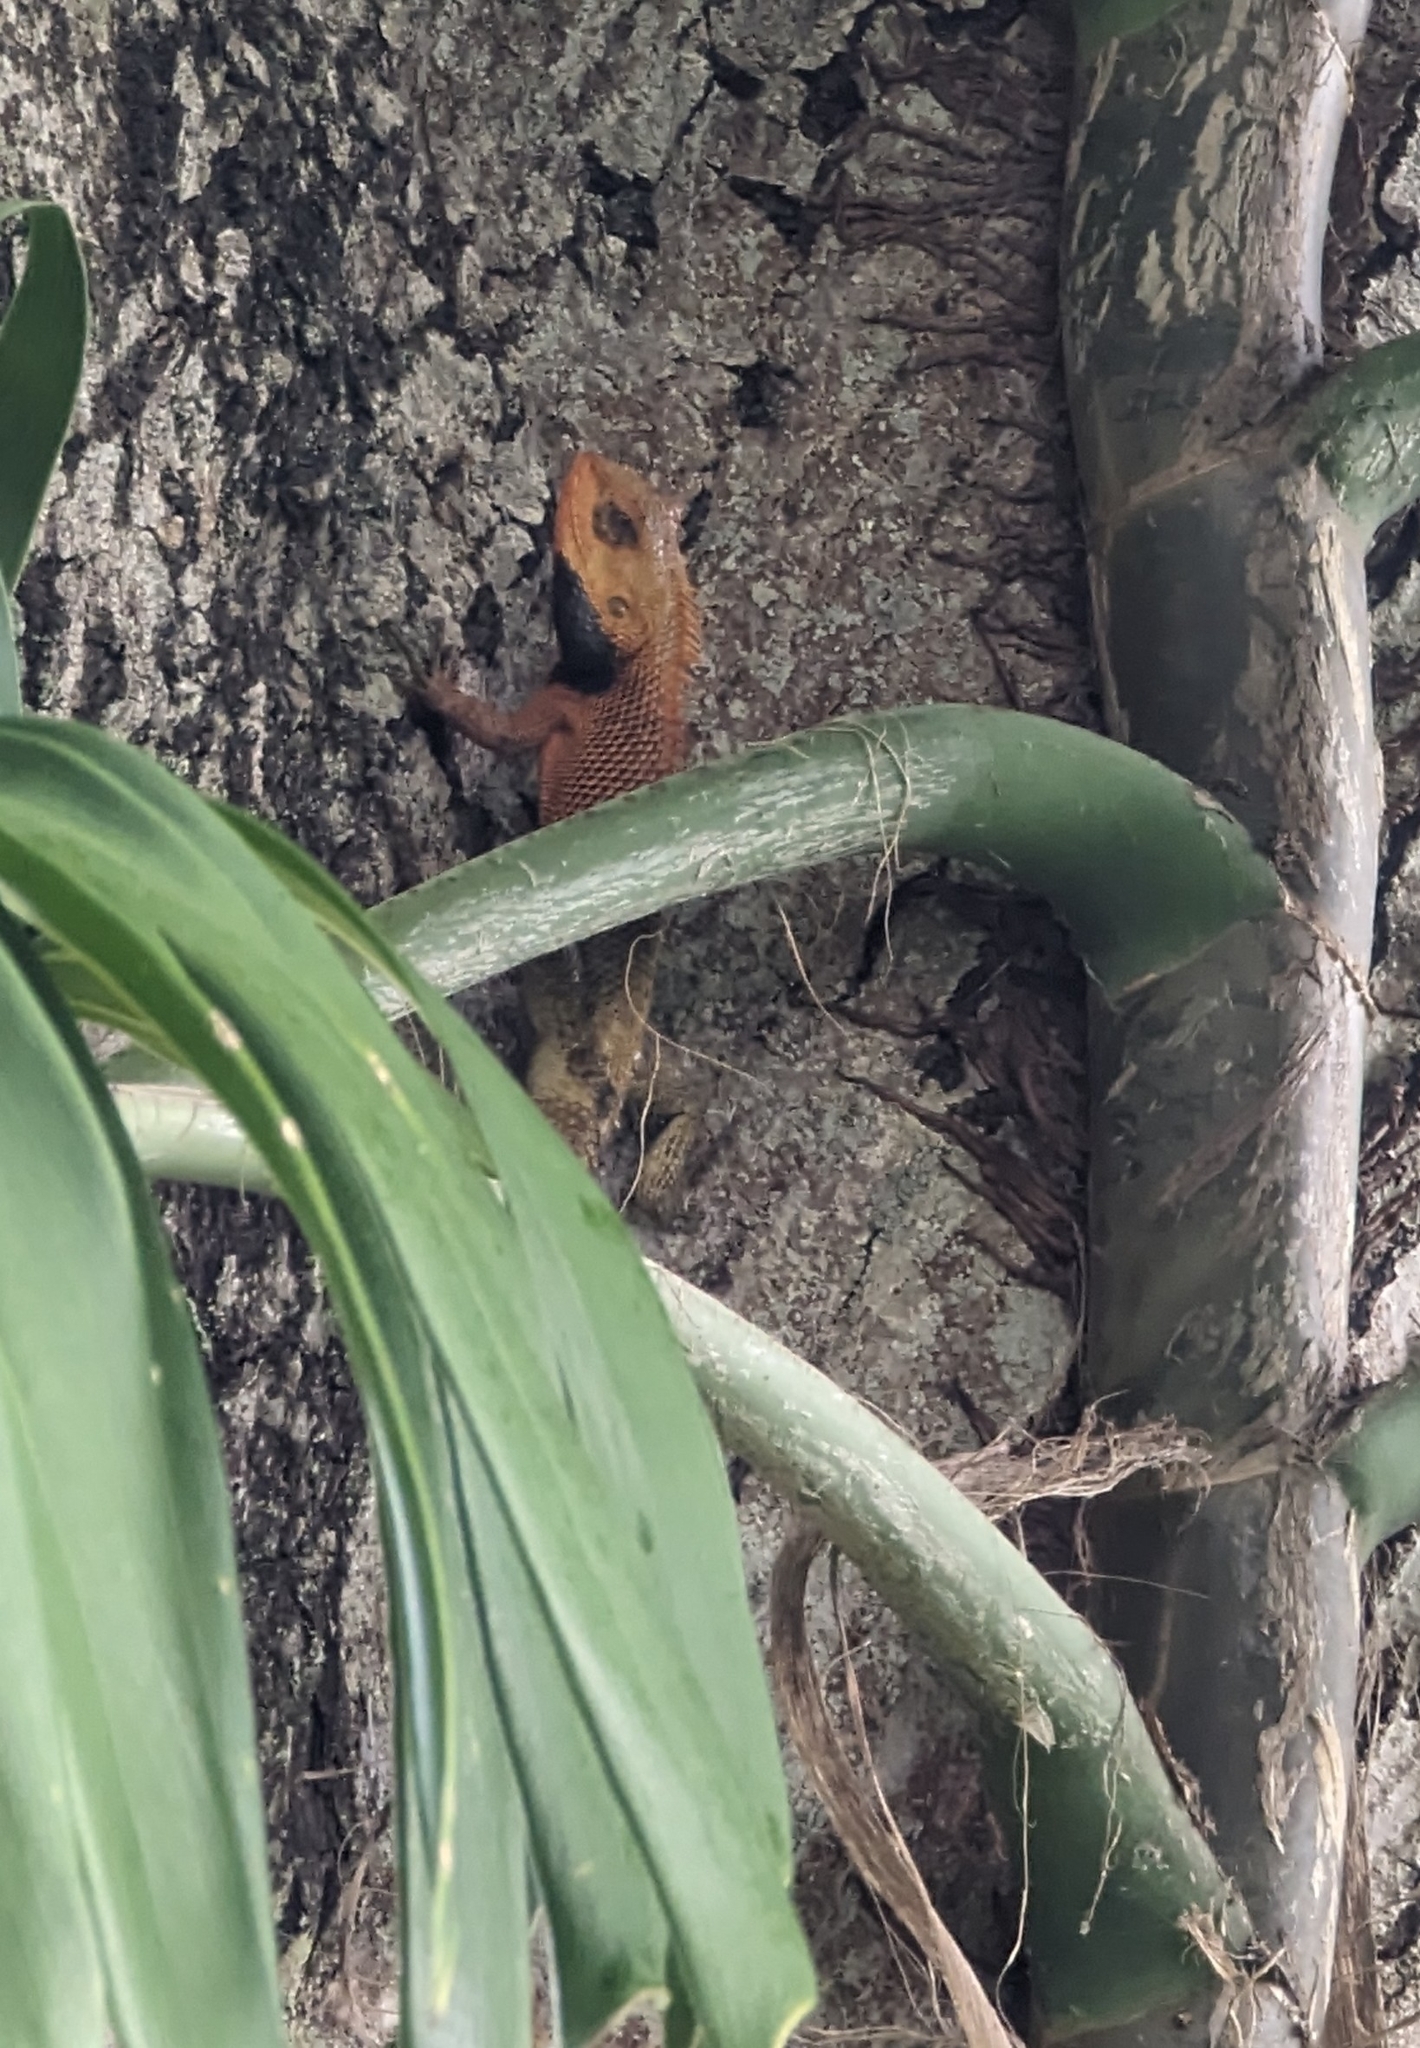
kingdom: Animalia
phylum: Chordata
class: Squamata
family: Agamidae
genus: Calotes
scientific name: Calotes versicolor
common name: Oriental garden lizard
